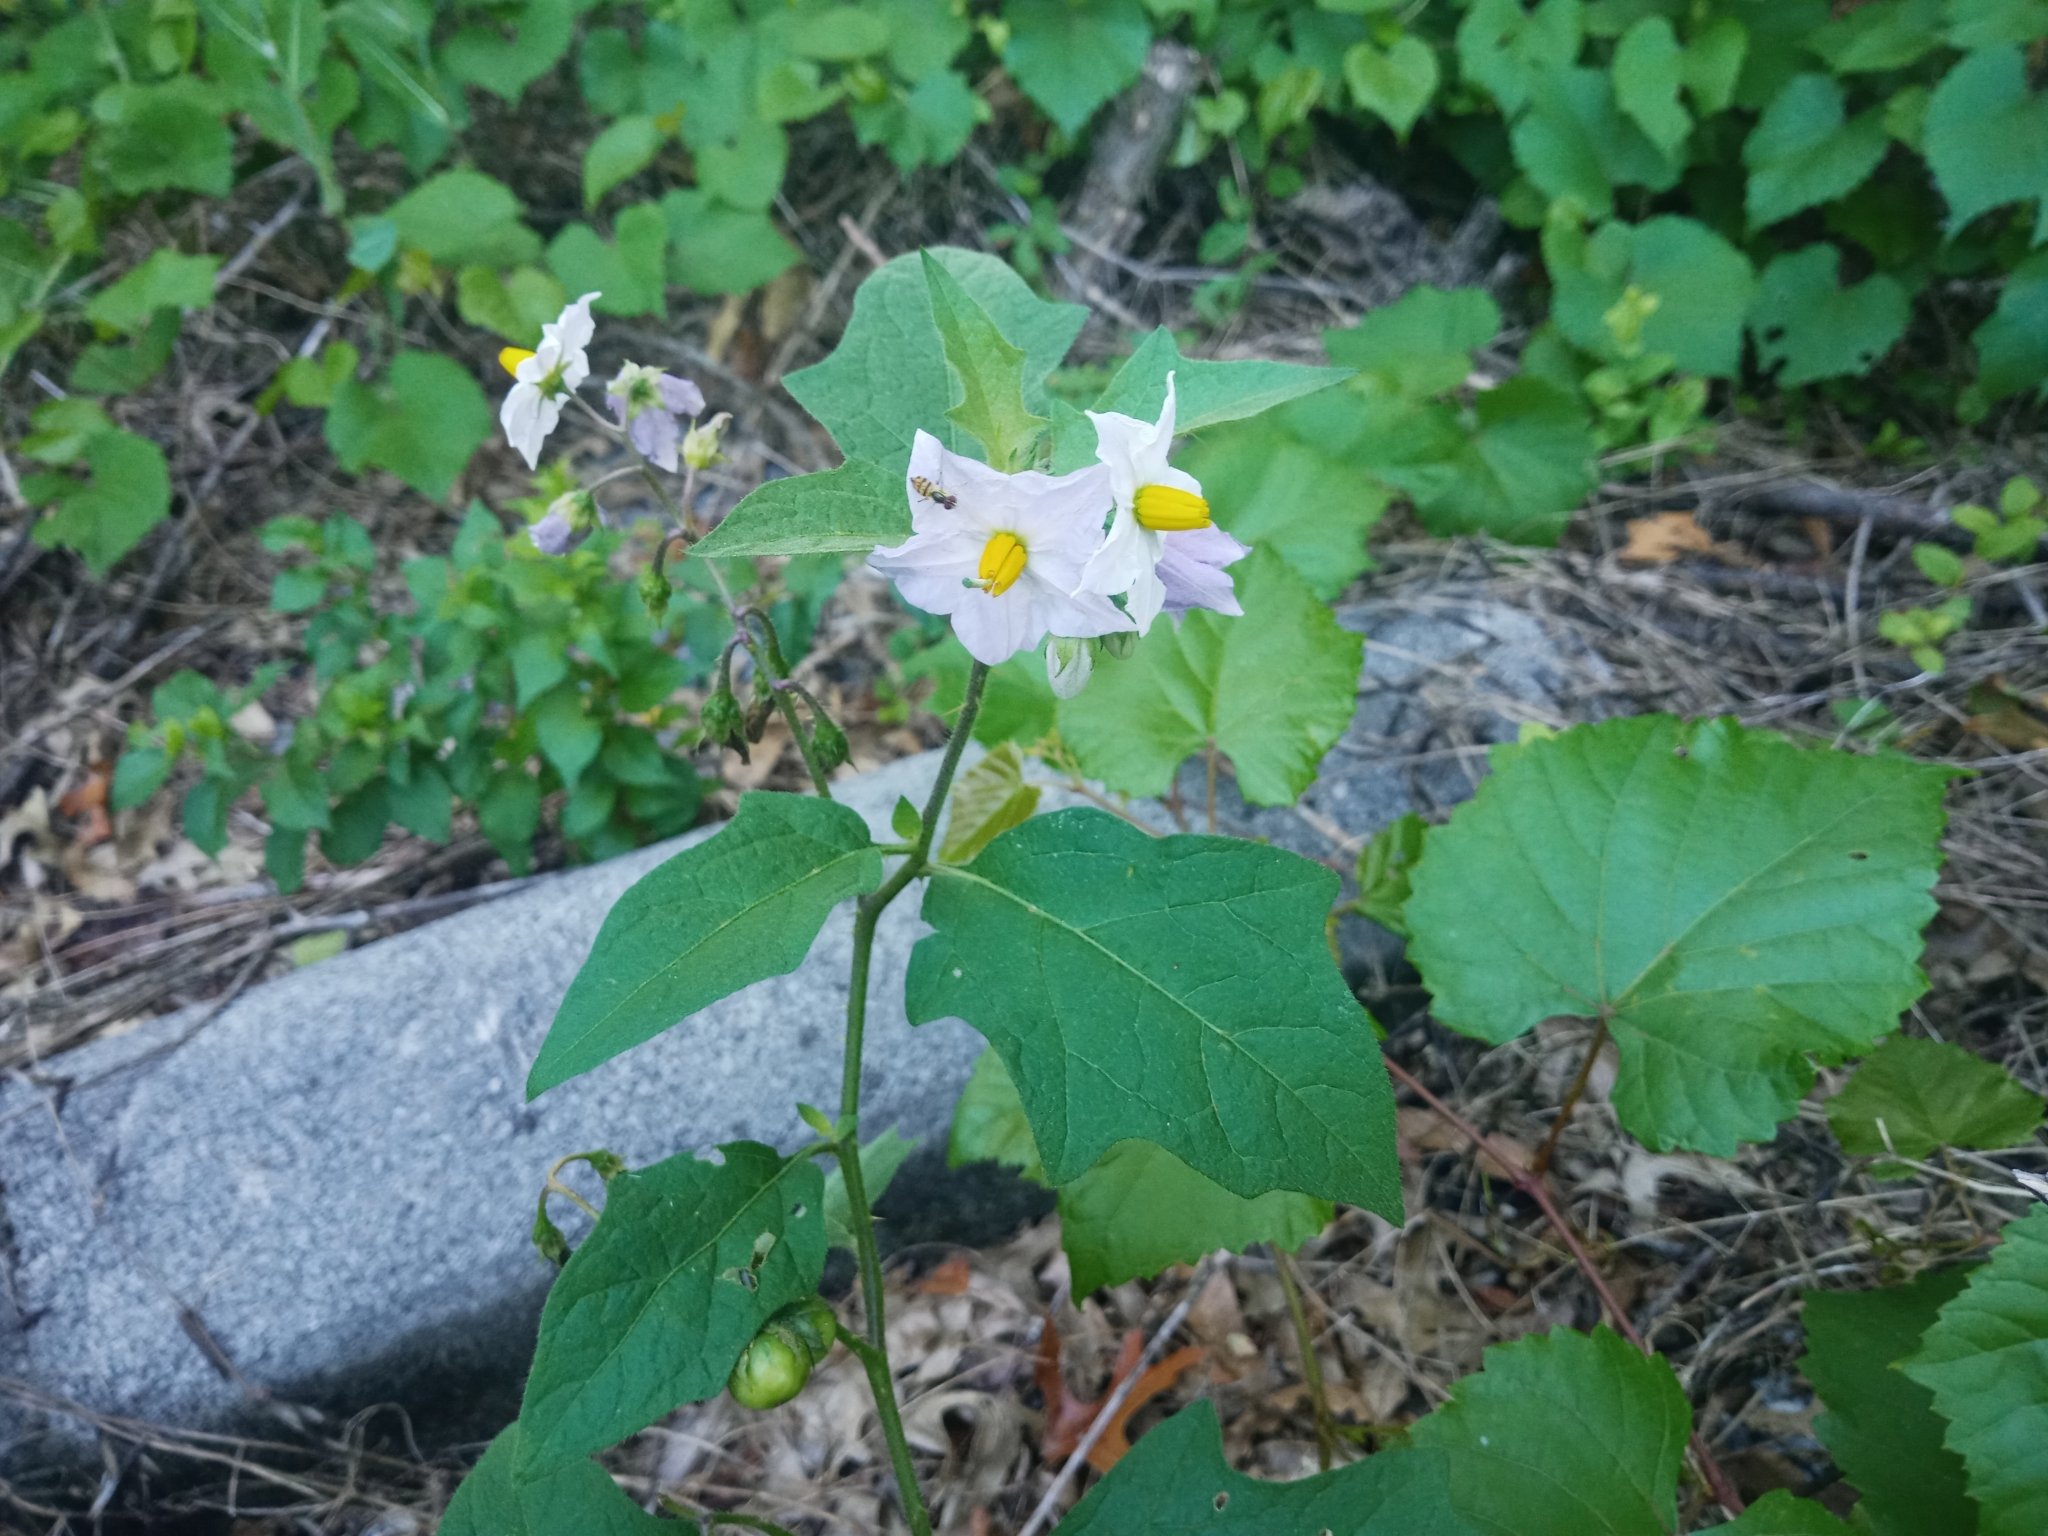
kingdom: Plantae
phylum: Tracheophyta
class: Magnoliopsida
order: Solanales
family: Solanaceae
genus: Solanum
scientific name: Solanum carolinense
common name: Horse-nettle
